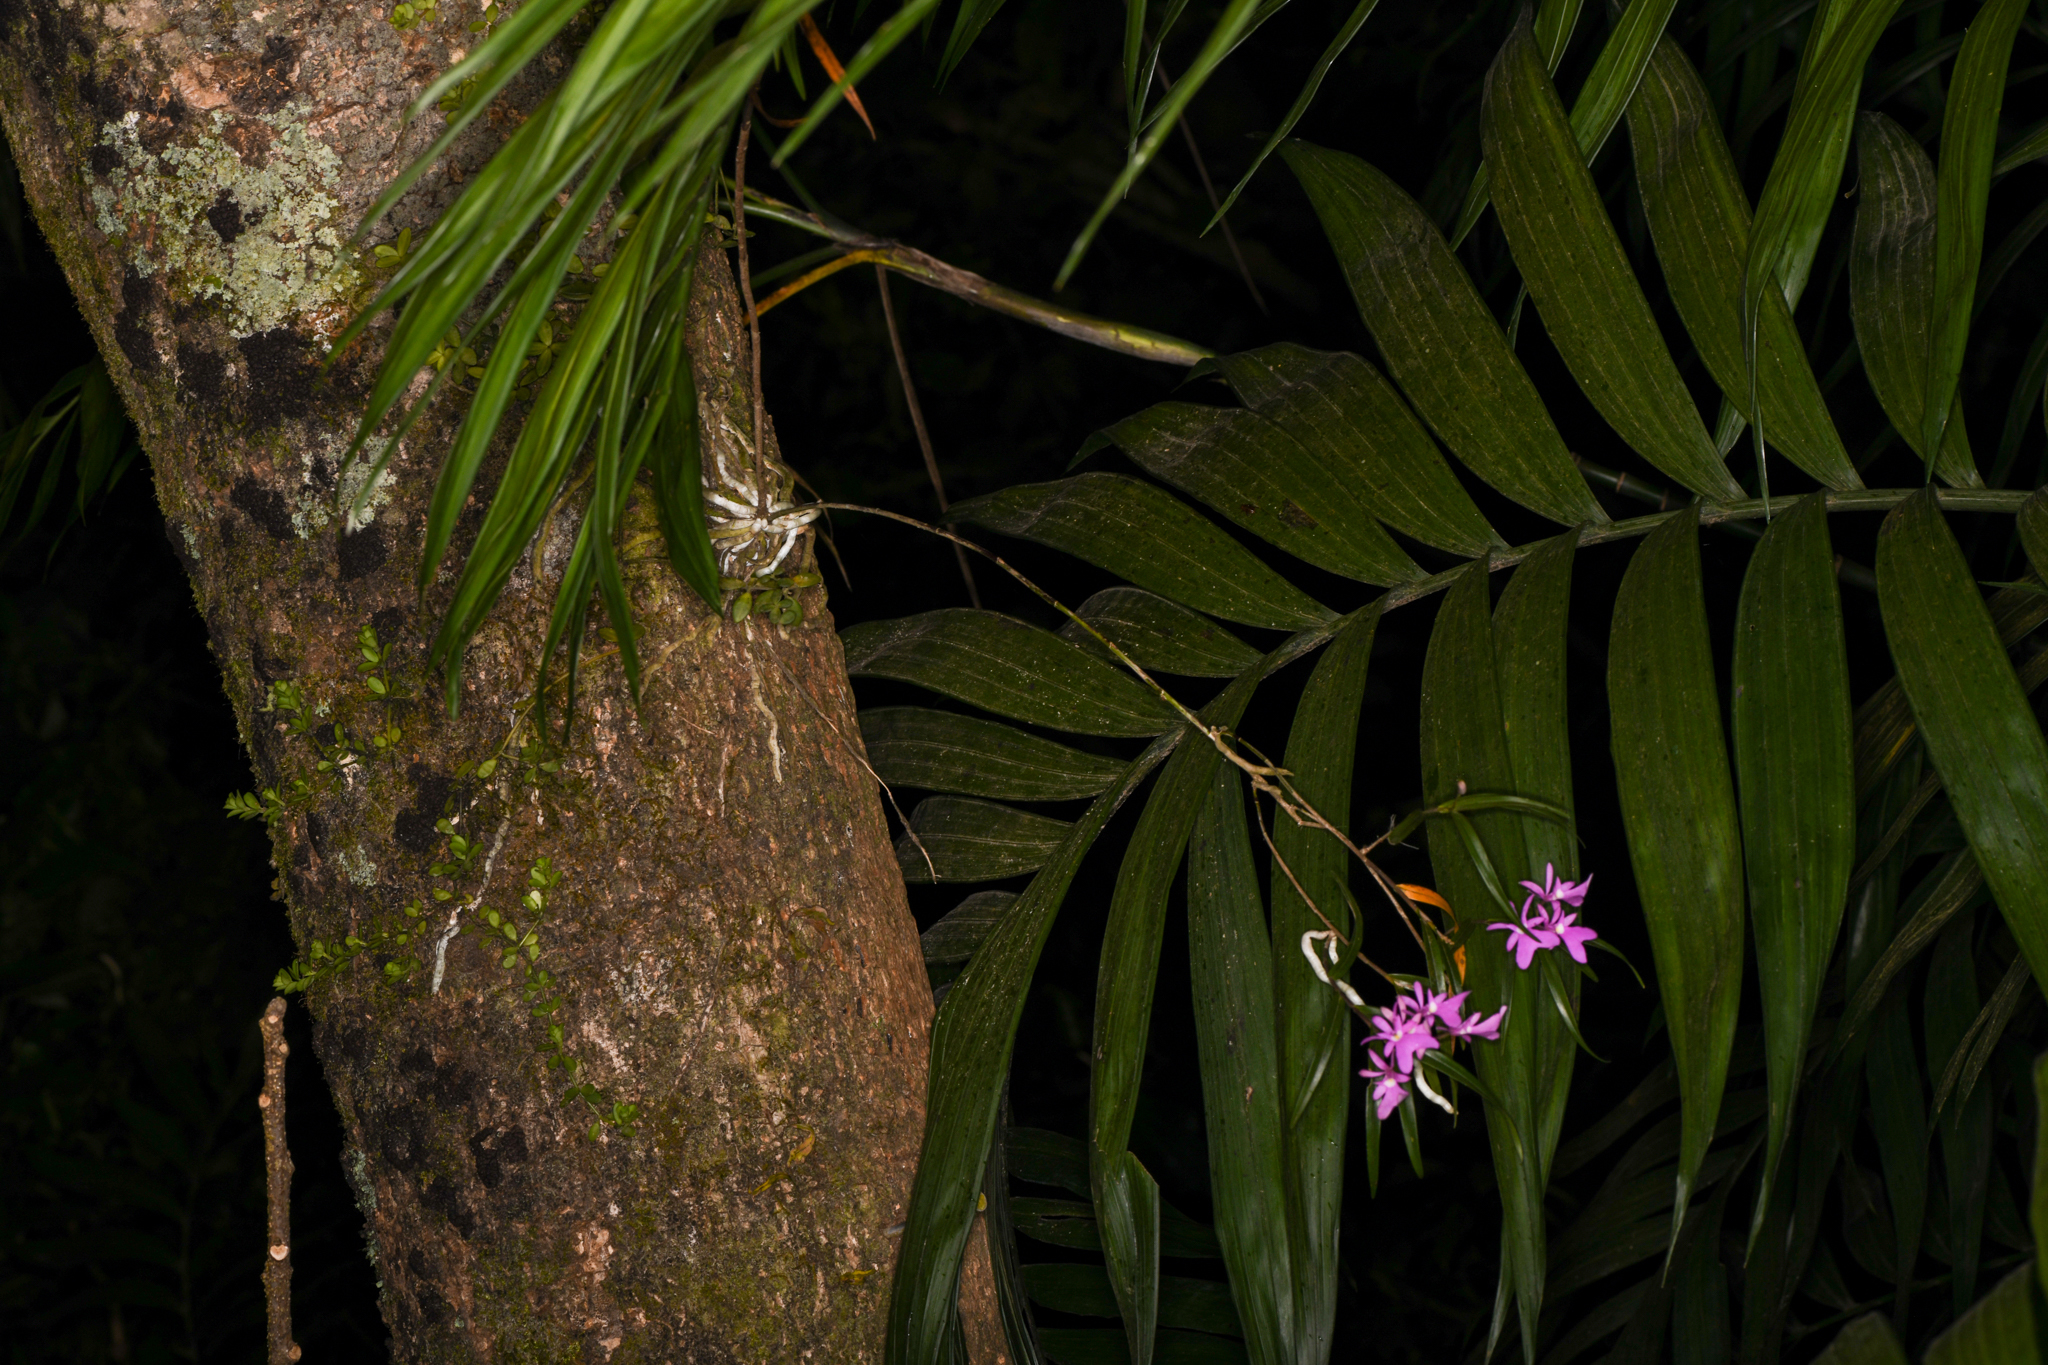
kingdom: Plantae
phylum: Tracheophyta
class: Liliopsida
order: Asparagales
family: Orchidaceae
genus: Epidendrum
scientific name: Epidendrum centropetalum
